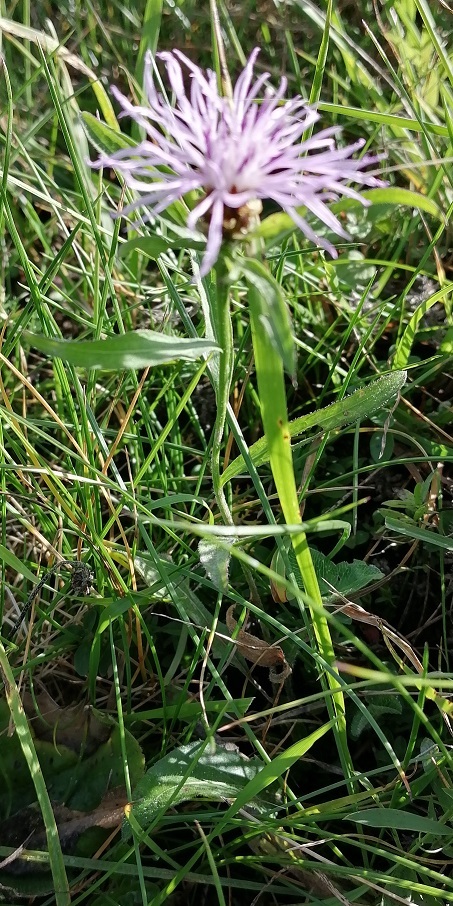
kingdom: Plantae
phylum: Tracheophyta
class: Magnoliopsida
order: Asterales
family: Asteraceae
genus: Centaurea
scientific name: Centaurea jacea
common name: Brown knapweed
